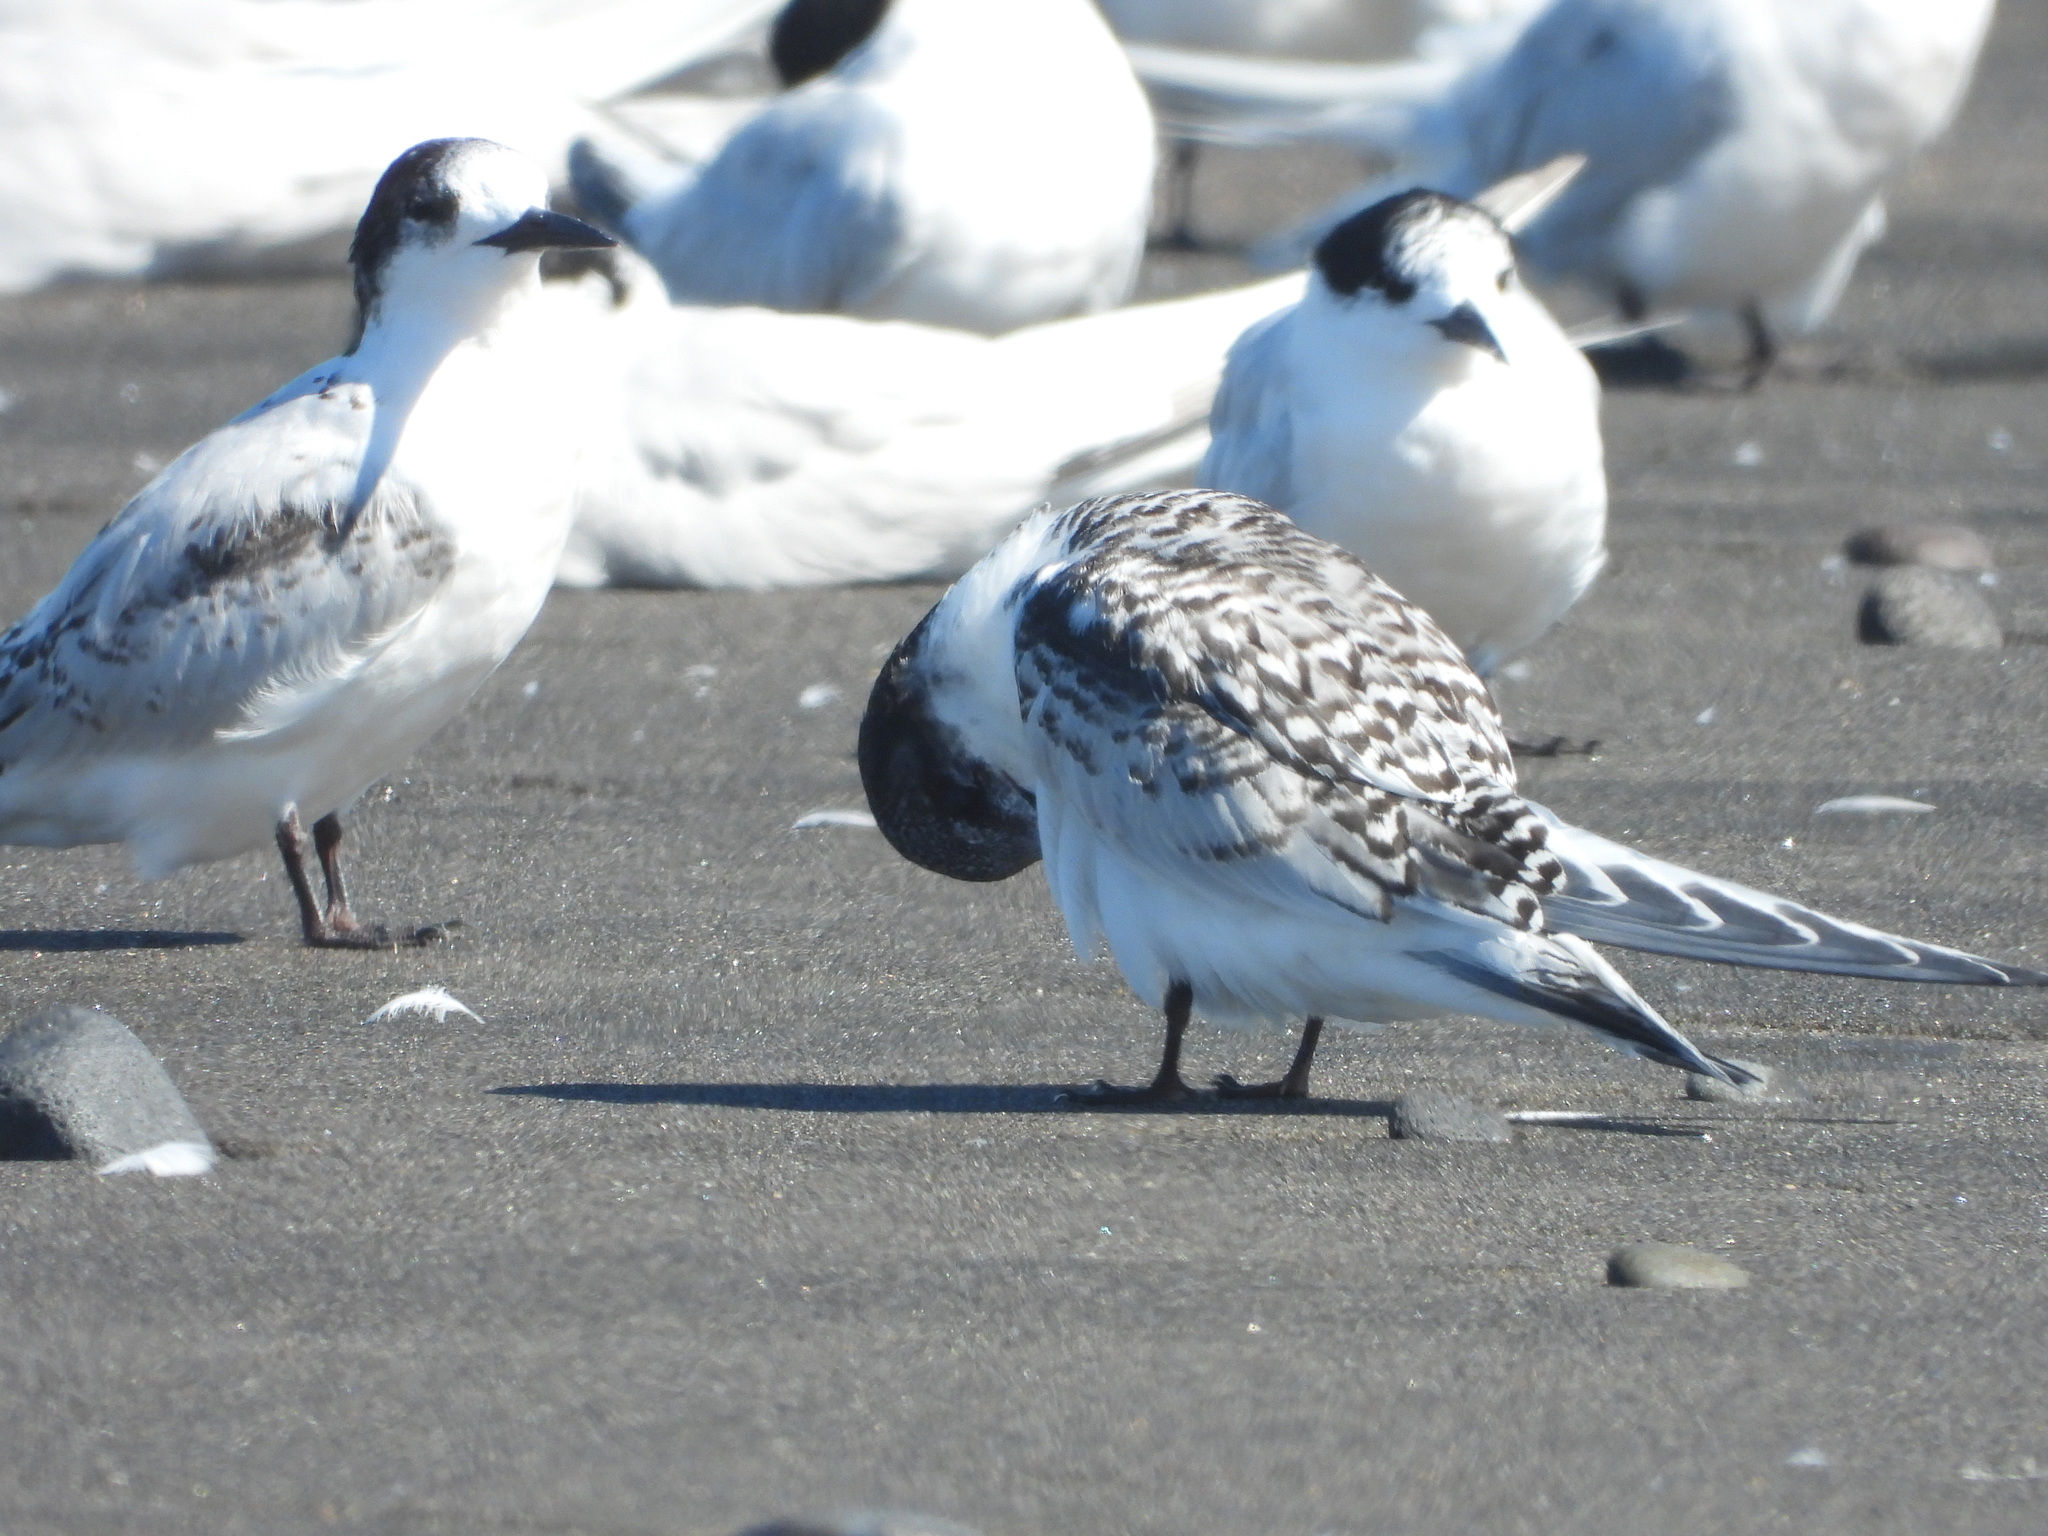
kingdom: Animalia
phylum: Chordata
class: Aves
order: Charadriiformes
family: Laridae
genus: Sterna
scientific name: Sterna striata
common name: White-fronted tern
